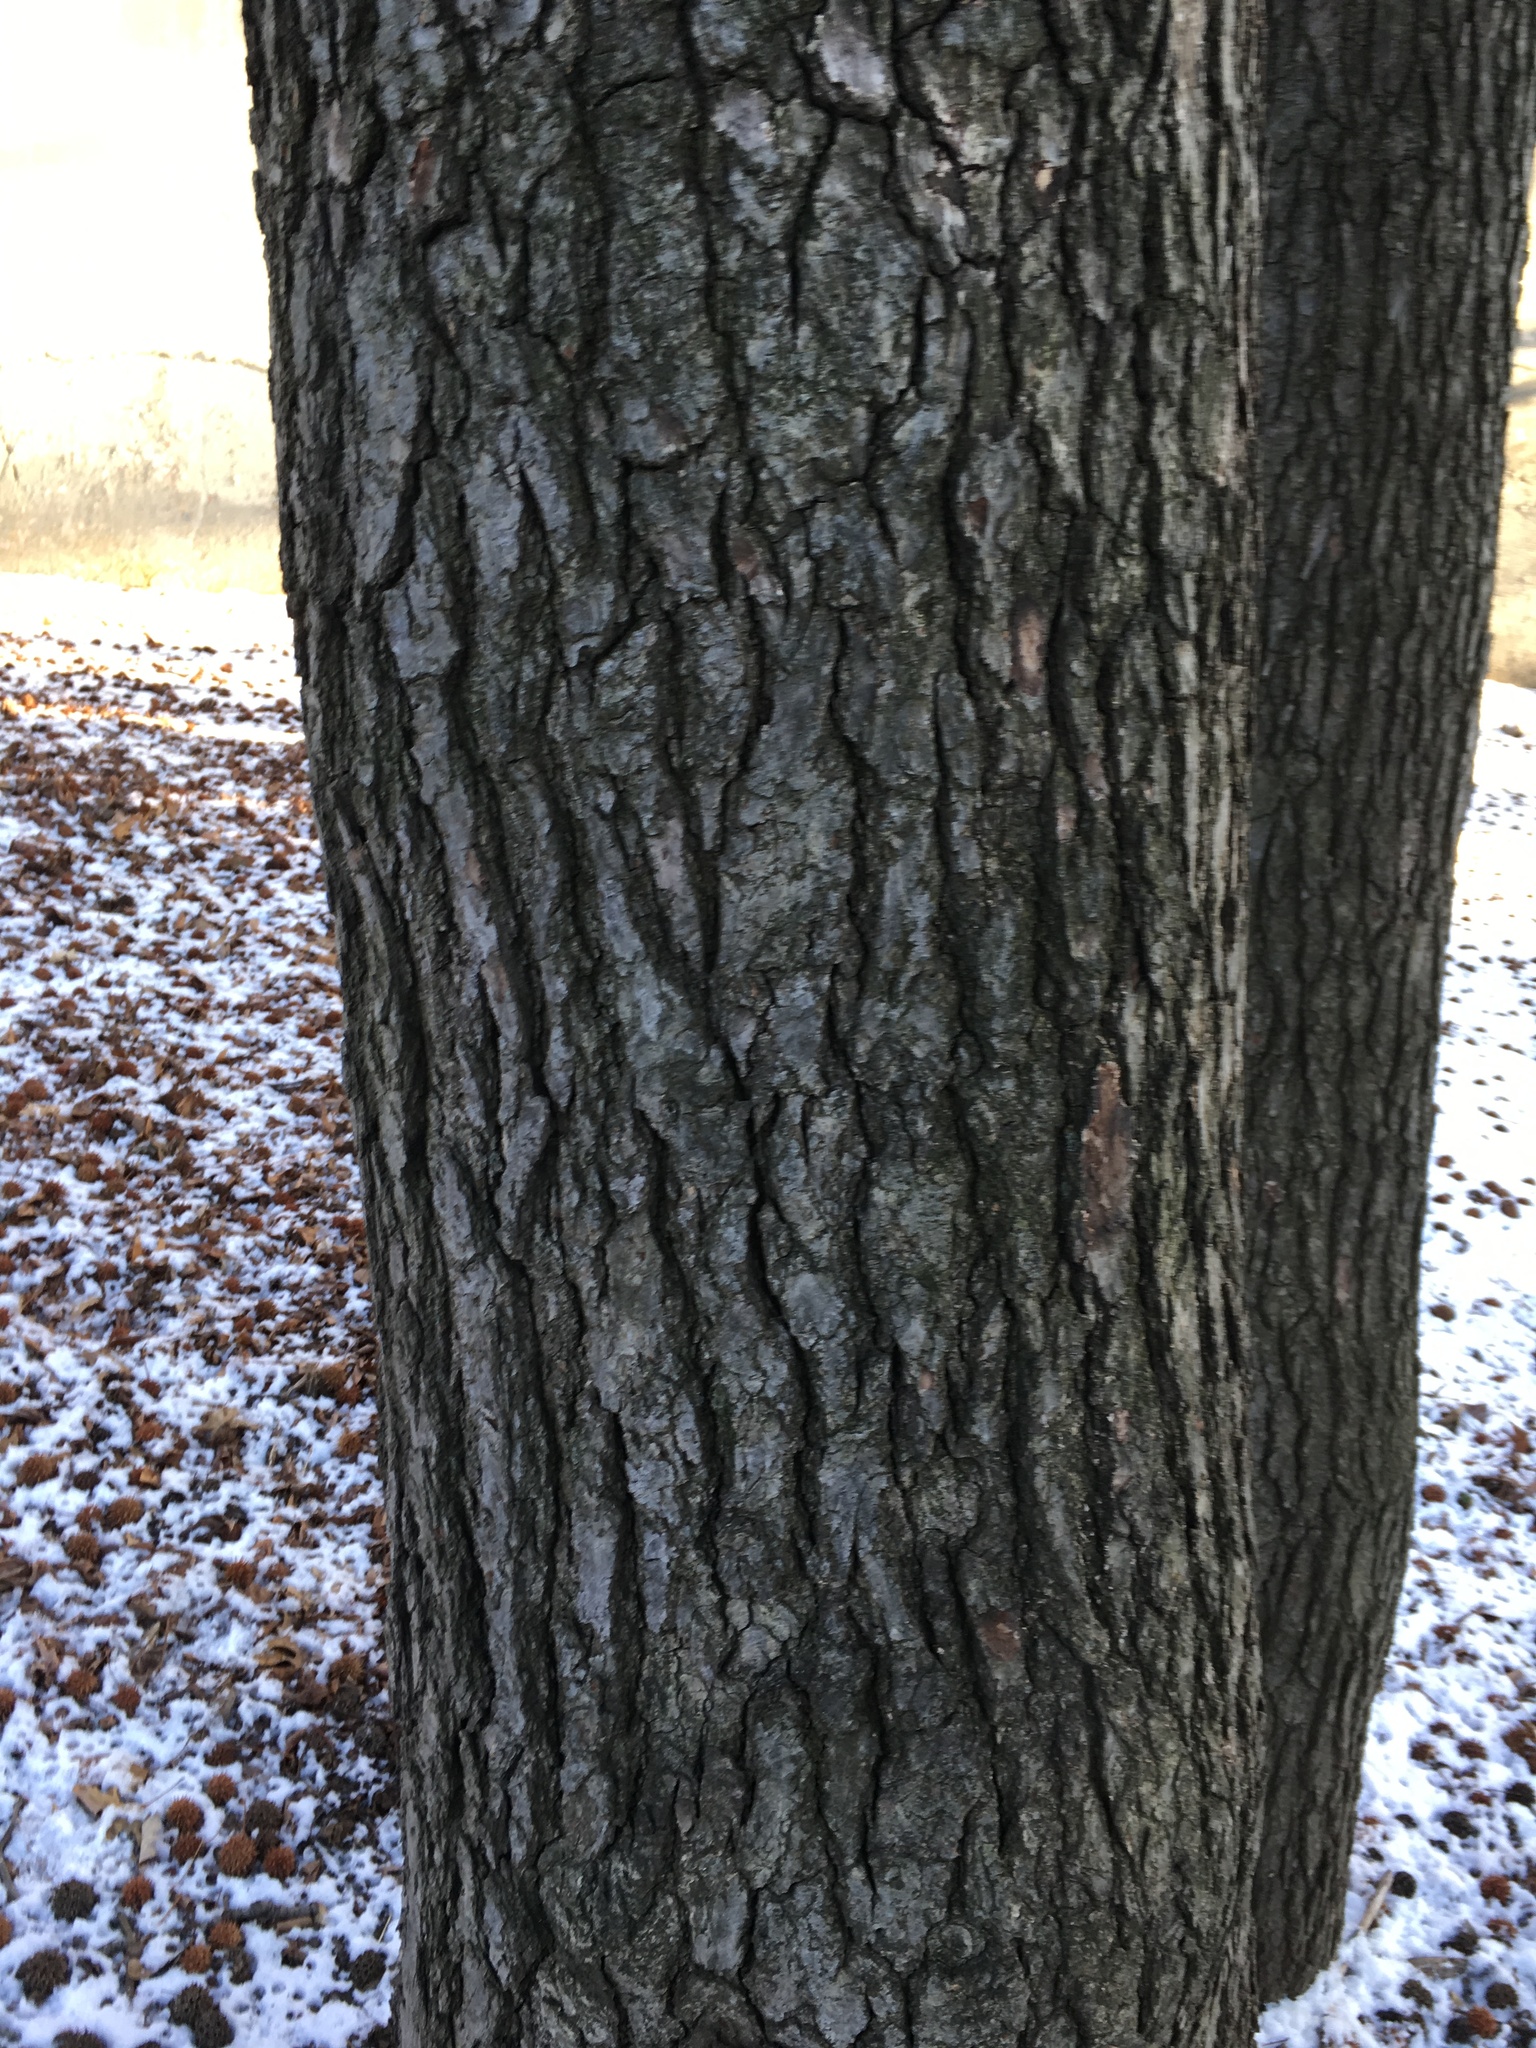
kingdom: Plantae
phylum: Tracheophyta
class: Magnoliopsida
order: Saxifragales
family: Altingiaceae
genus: Liquidambar
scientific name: Liquidambar styraciflua
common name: Sweet gum
